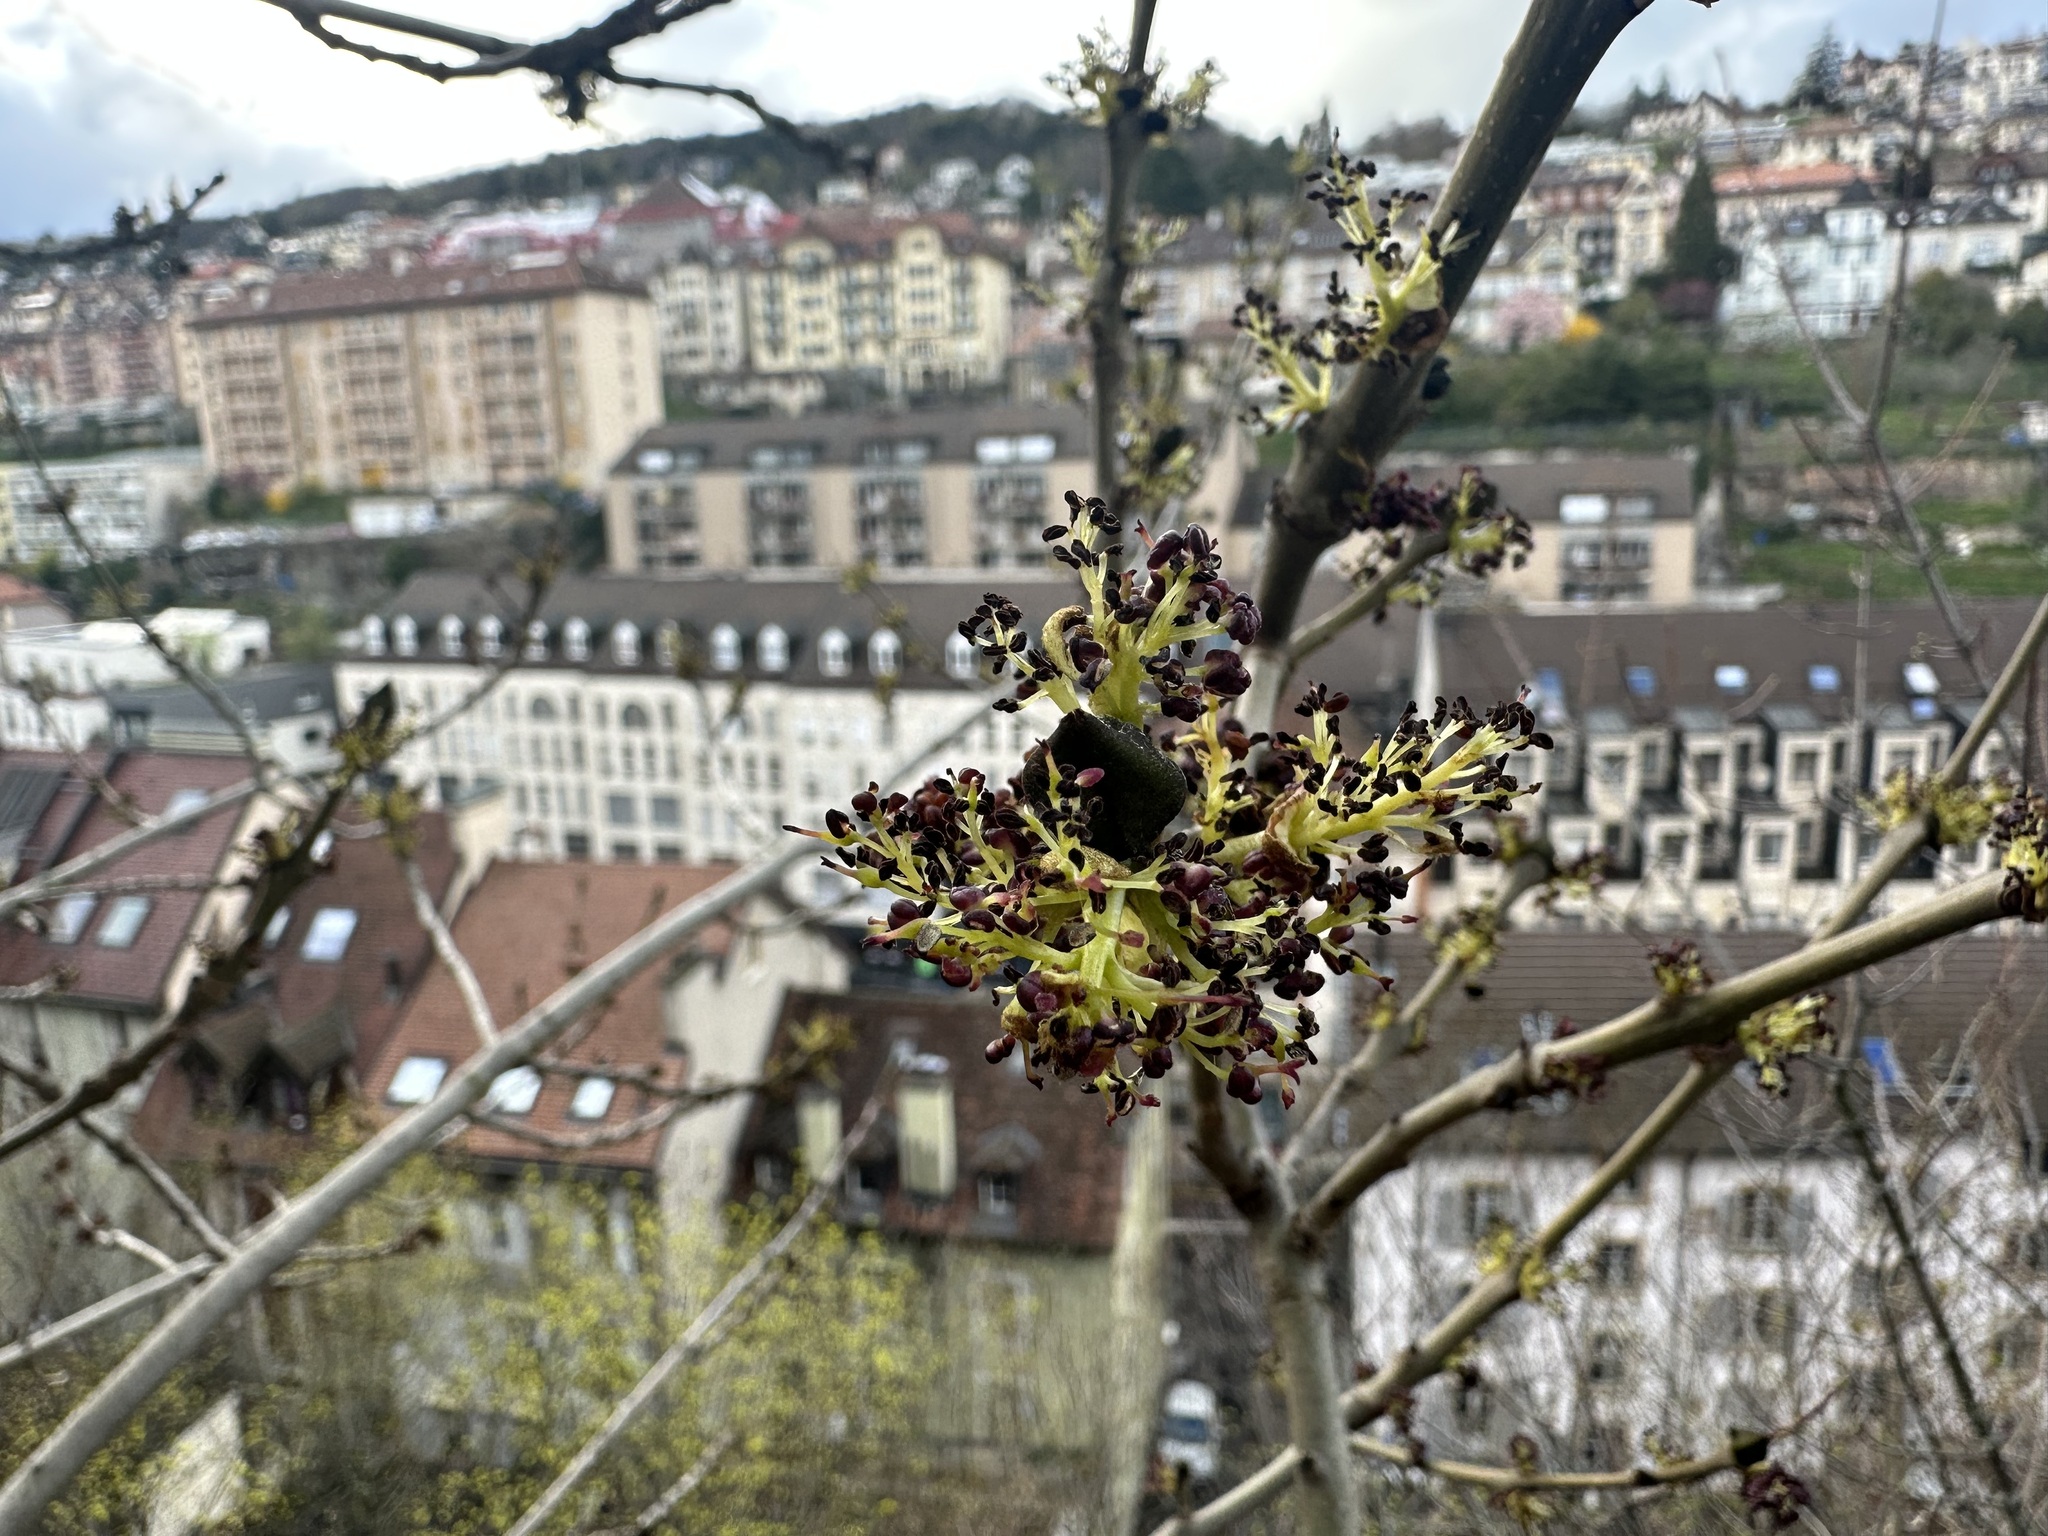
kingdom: Plantae
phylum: Tracheophyta
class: Magnoliopsida
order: Lamiales
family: Oleaceae
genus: Fraxinus
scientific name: Fraxinus excelsior
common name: European ash
